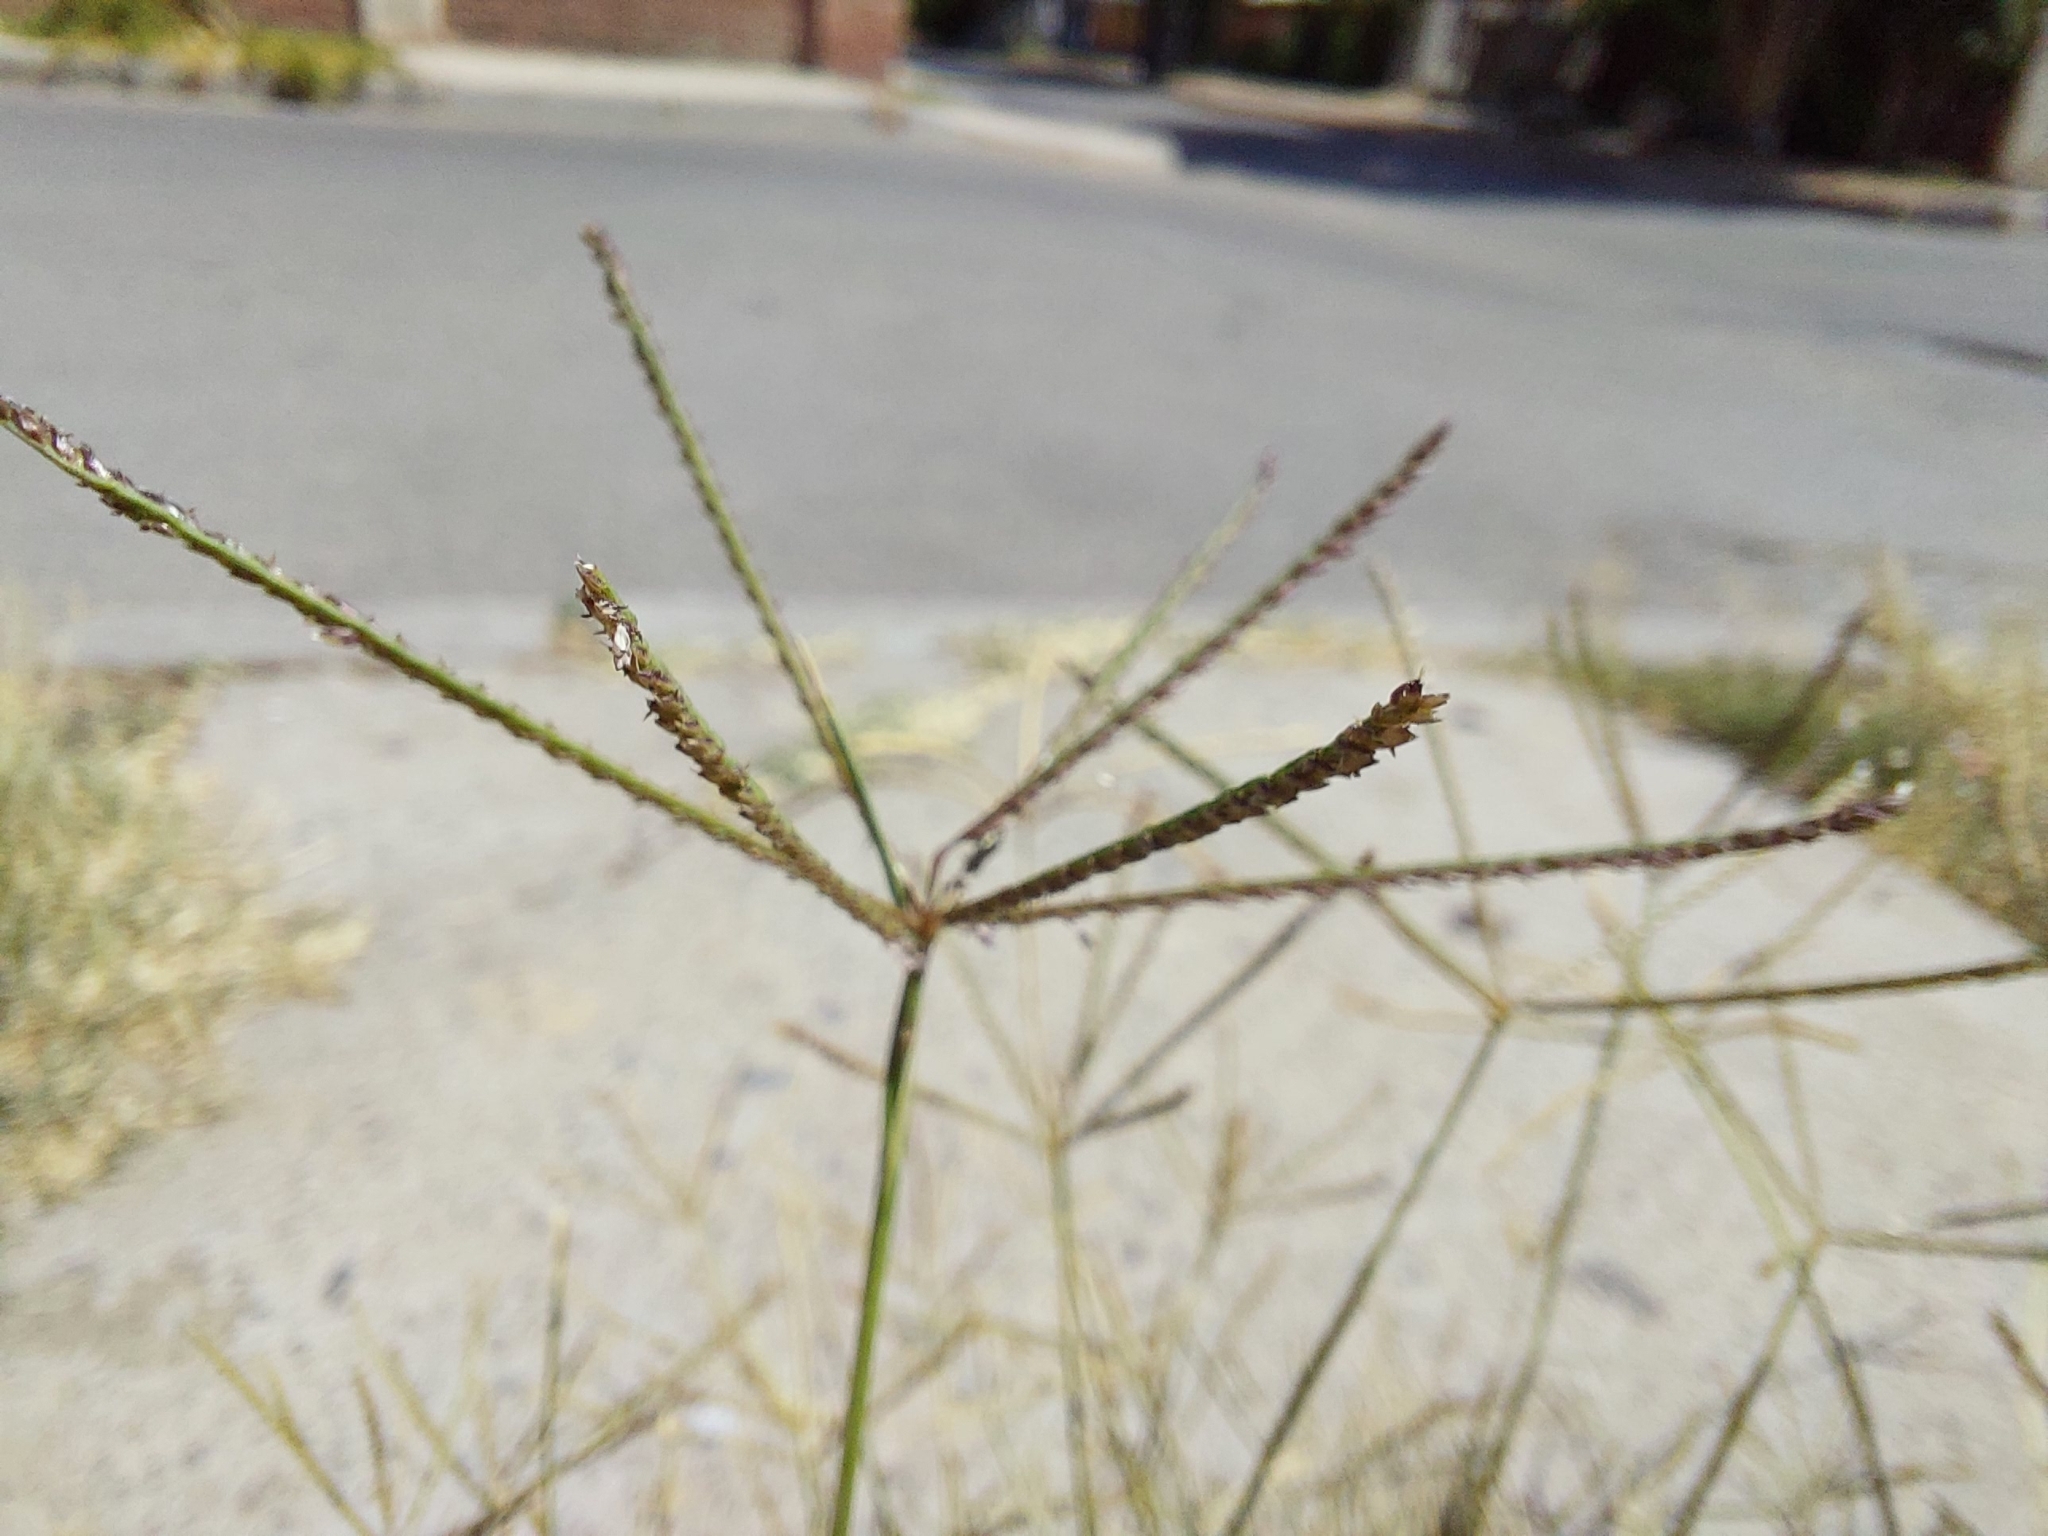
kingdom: Plantae
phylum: Tracheophyta
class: Liliopsida
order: Poales
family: Poaceae
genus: Eleusine
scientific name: Eleusine indica
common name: Yard-grass
